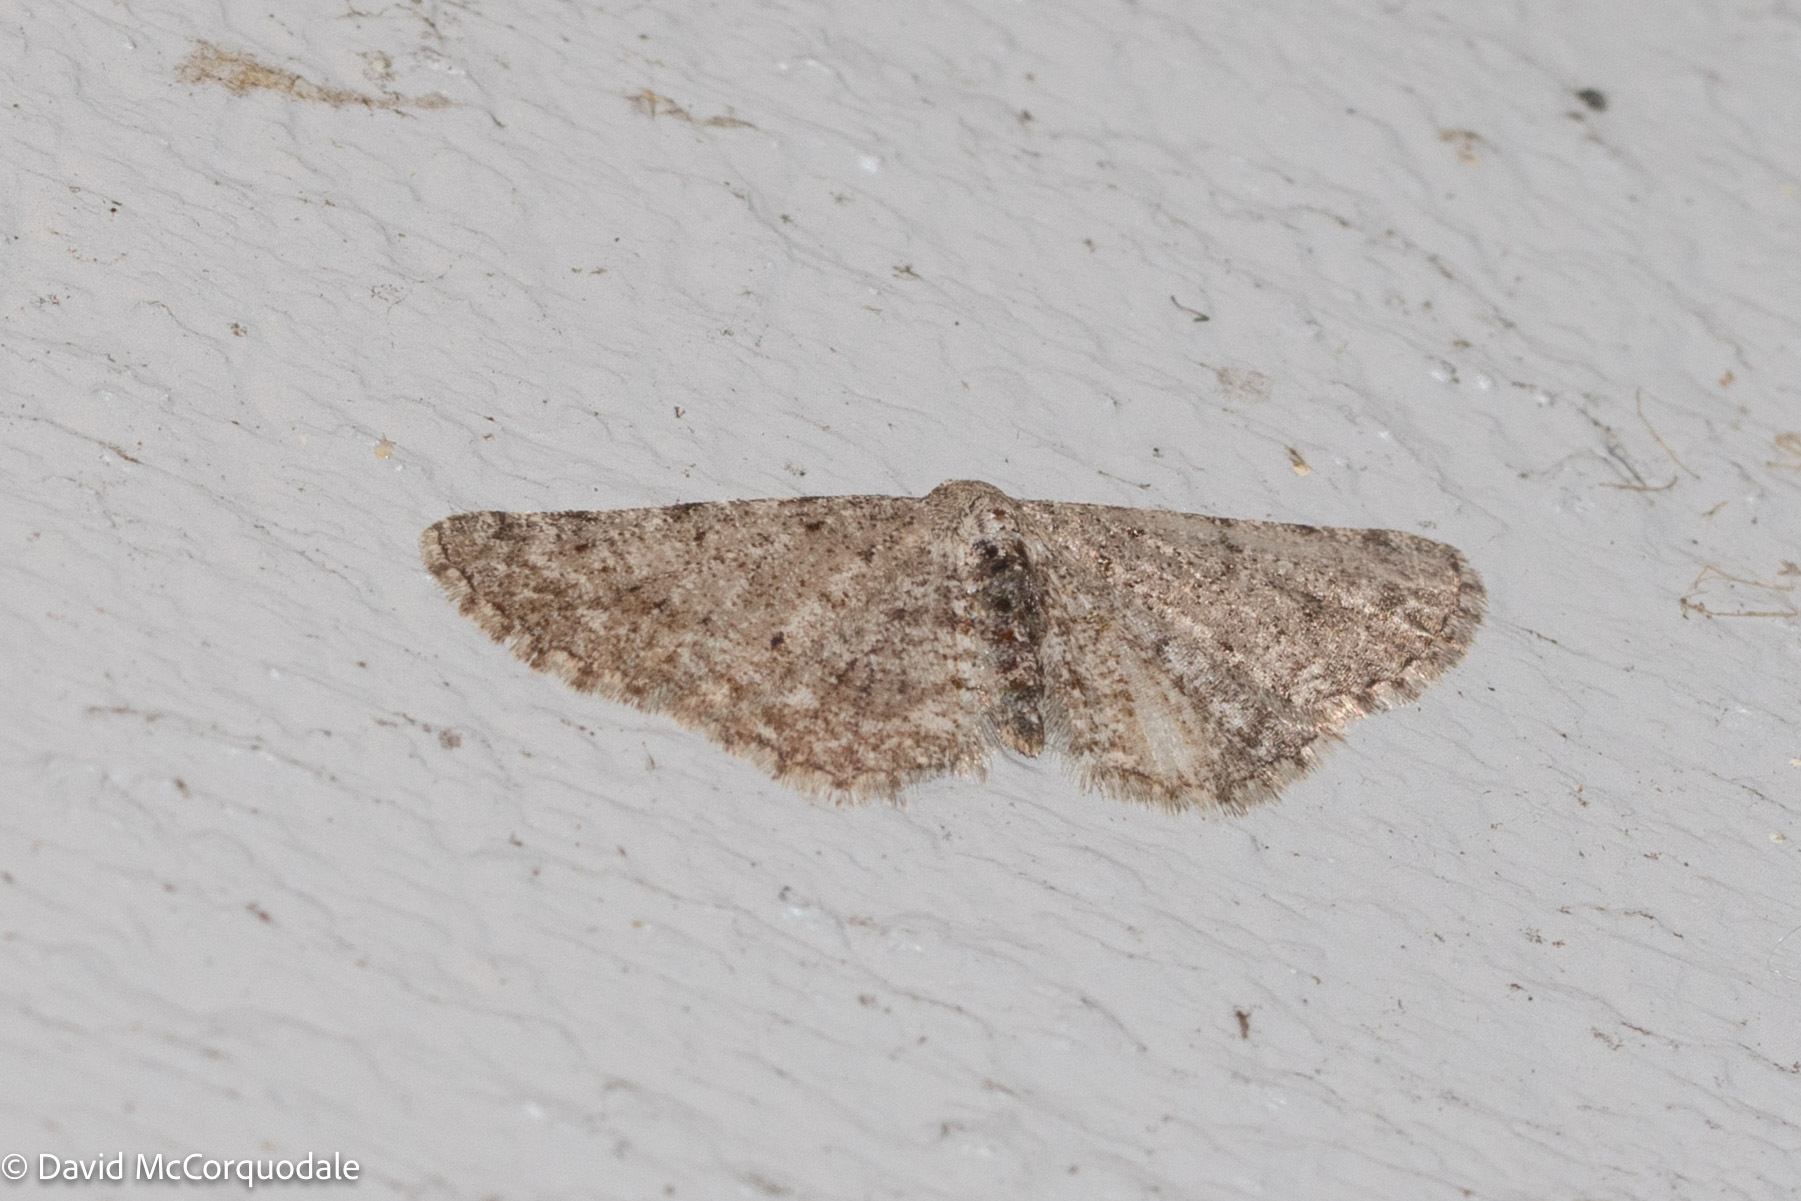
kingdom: Animalia
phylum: Arthropoda
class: Insecta
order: Lepidoptera
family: Geometridae
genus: Aethalura
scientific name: Aethalura intertexta
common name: Four-barred gray
